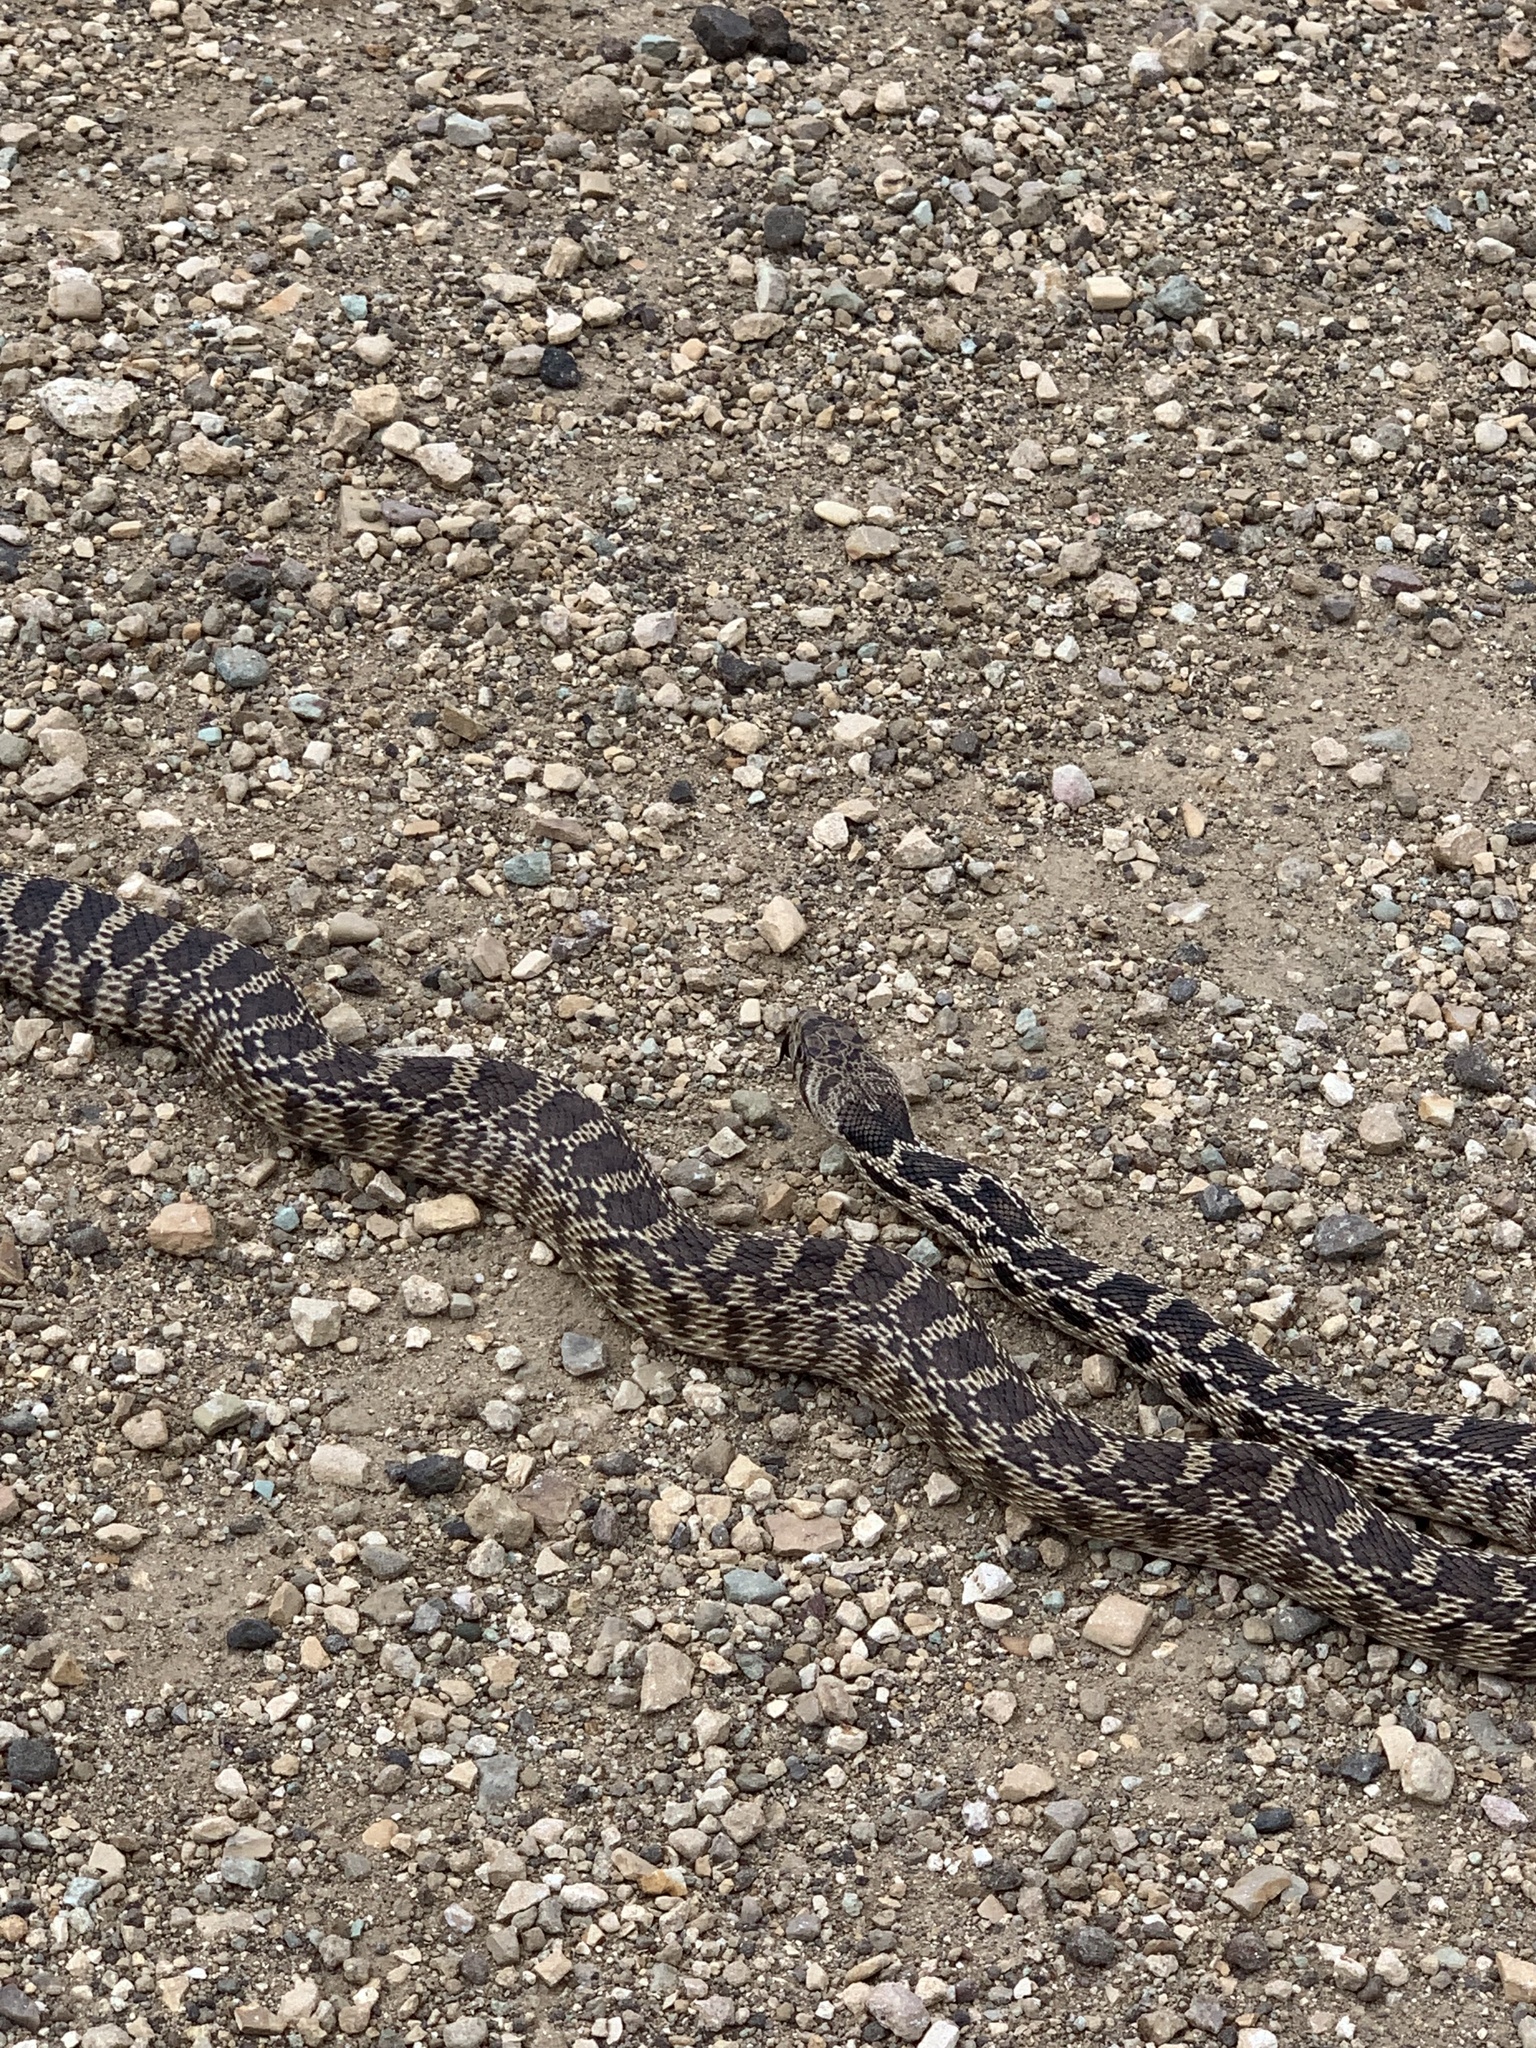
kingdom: Animalia
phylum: Chordata
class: Squamata
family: Colubridae
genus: Pituophis
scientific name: Pituophis catenifer
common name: Gopher snake
